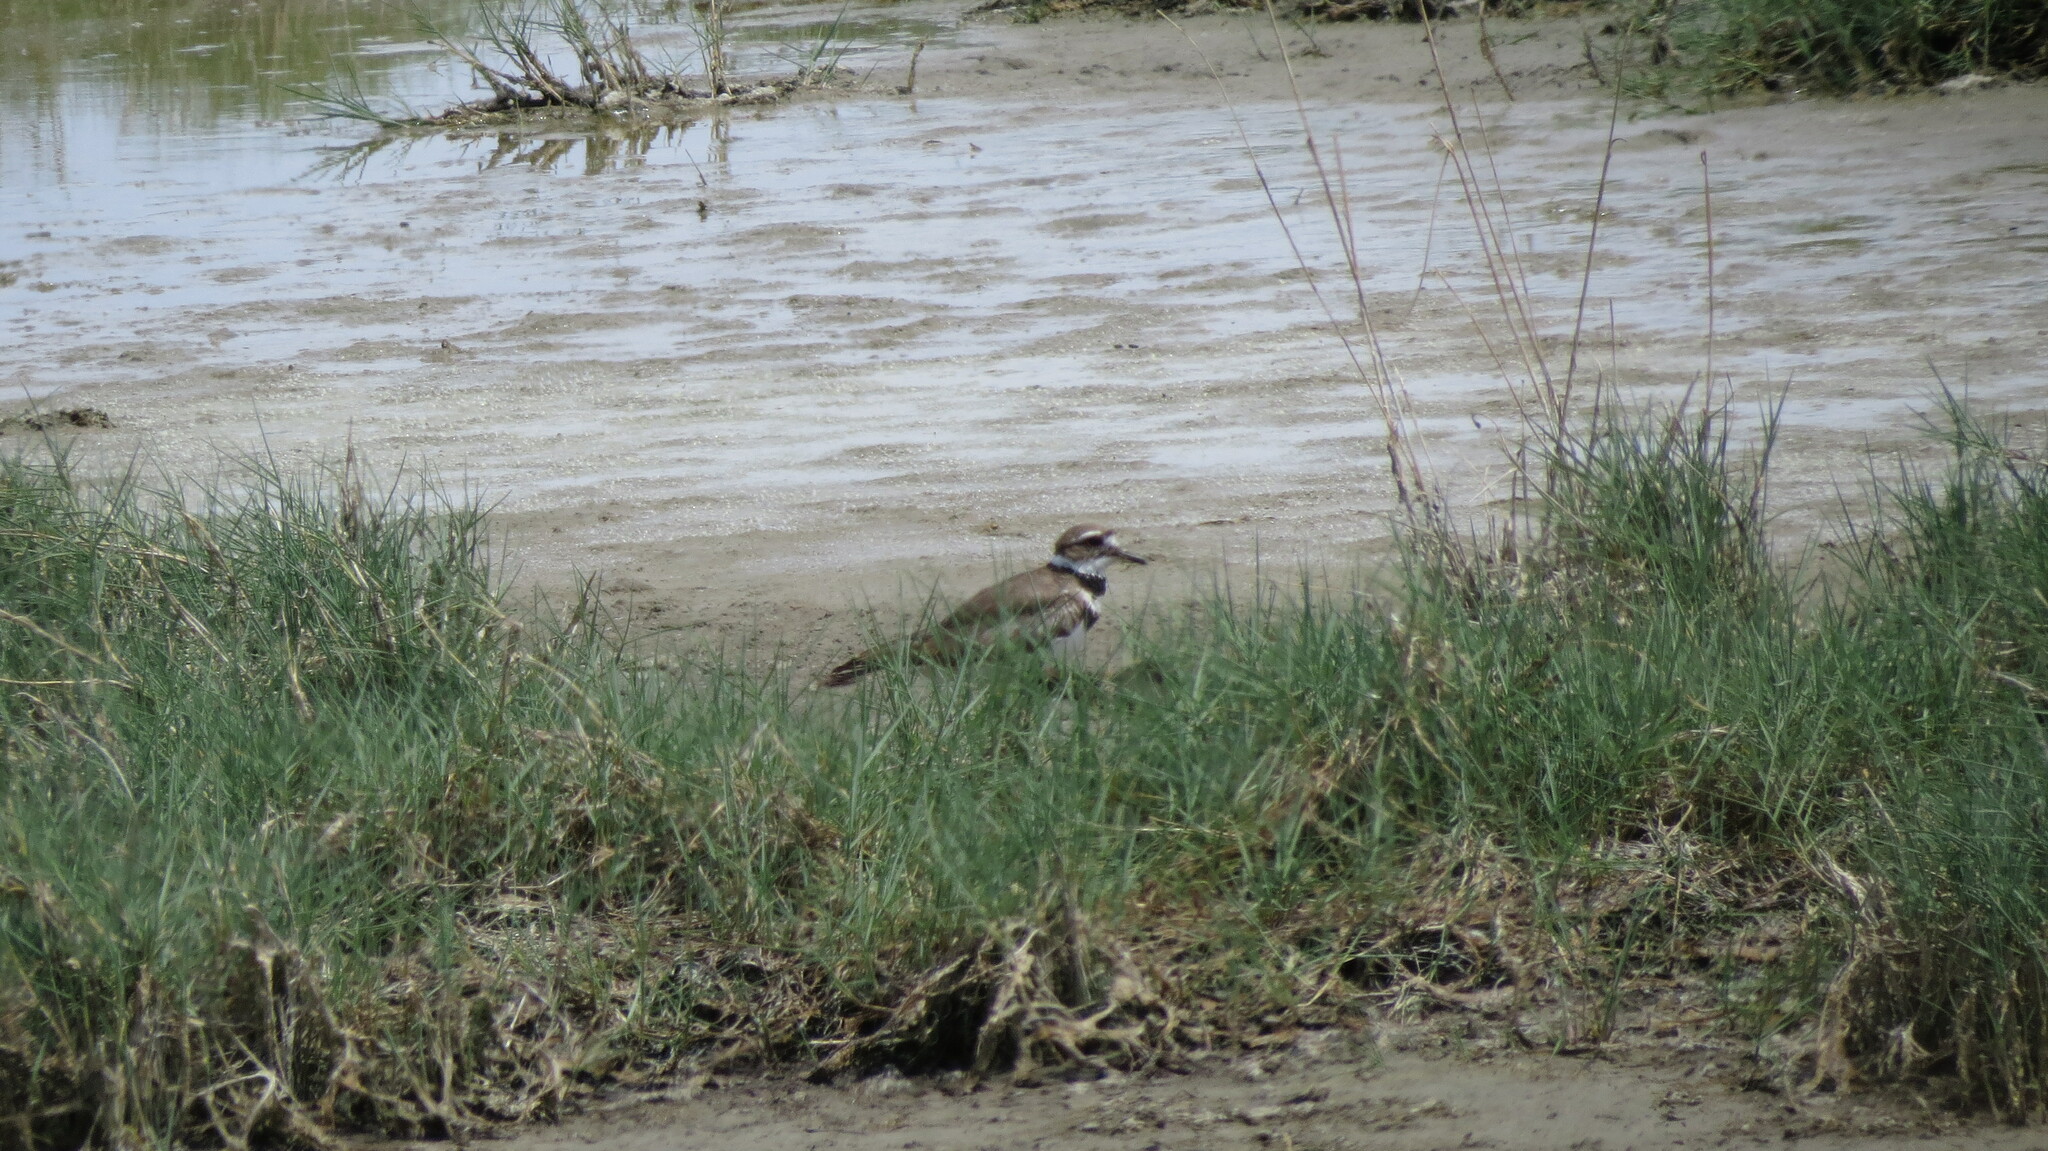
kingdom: Animalia
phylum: Chordata
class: Aves
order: Charadriiformes
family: Charadriidae
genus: Charadrius
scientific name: Charadrius vociferus
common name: Killdeer
